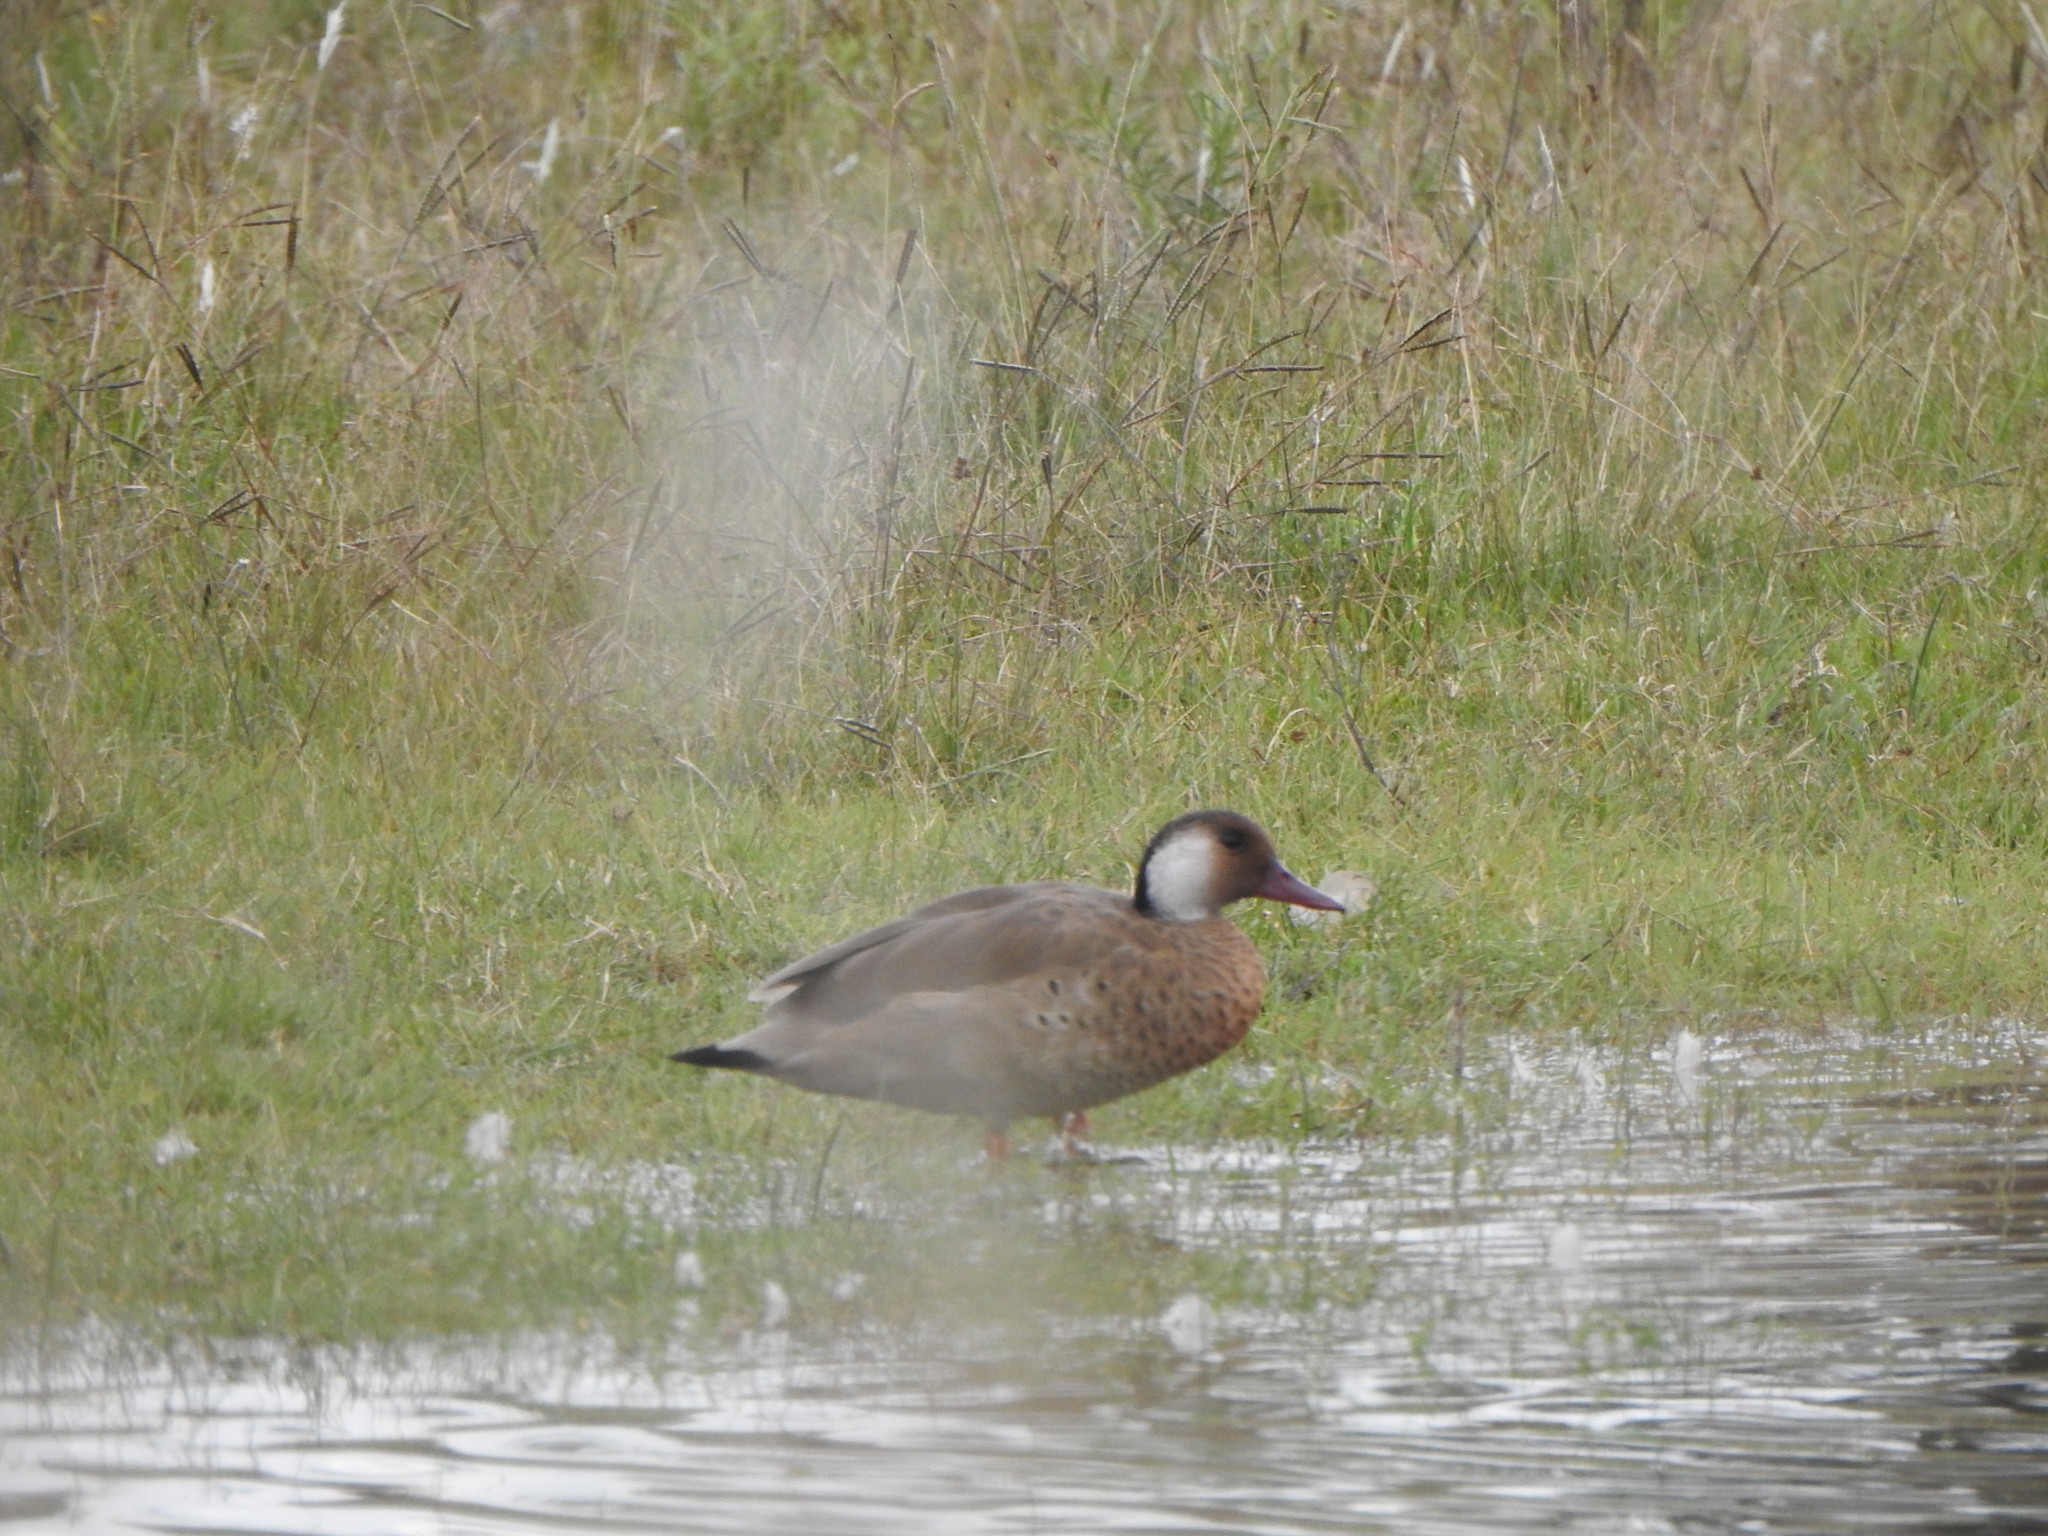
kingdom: Animalia
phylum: Chordata
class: Aves
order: Anseriformes
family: Anatidae
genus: Amazonetta
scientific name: Amazonetta brasiliensis
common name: Brazilian teal
